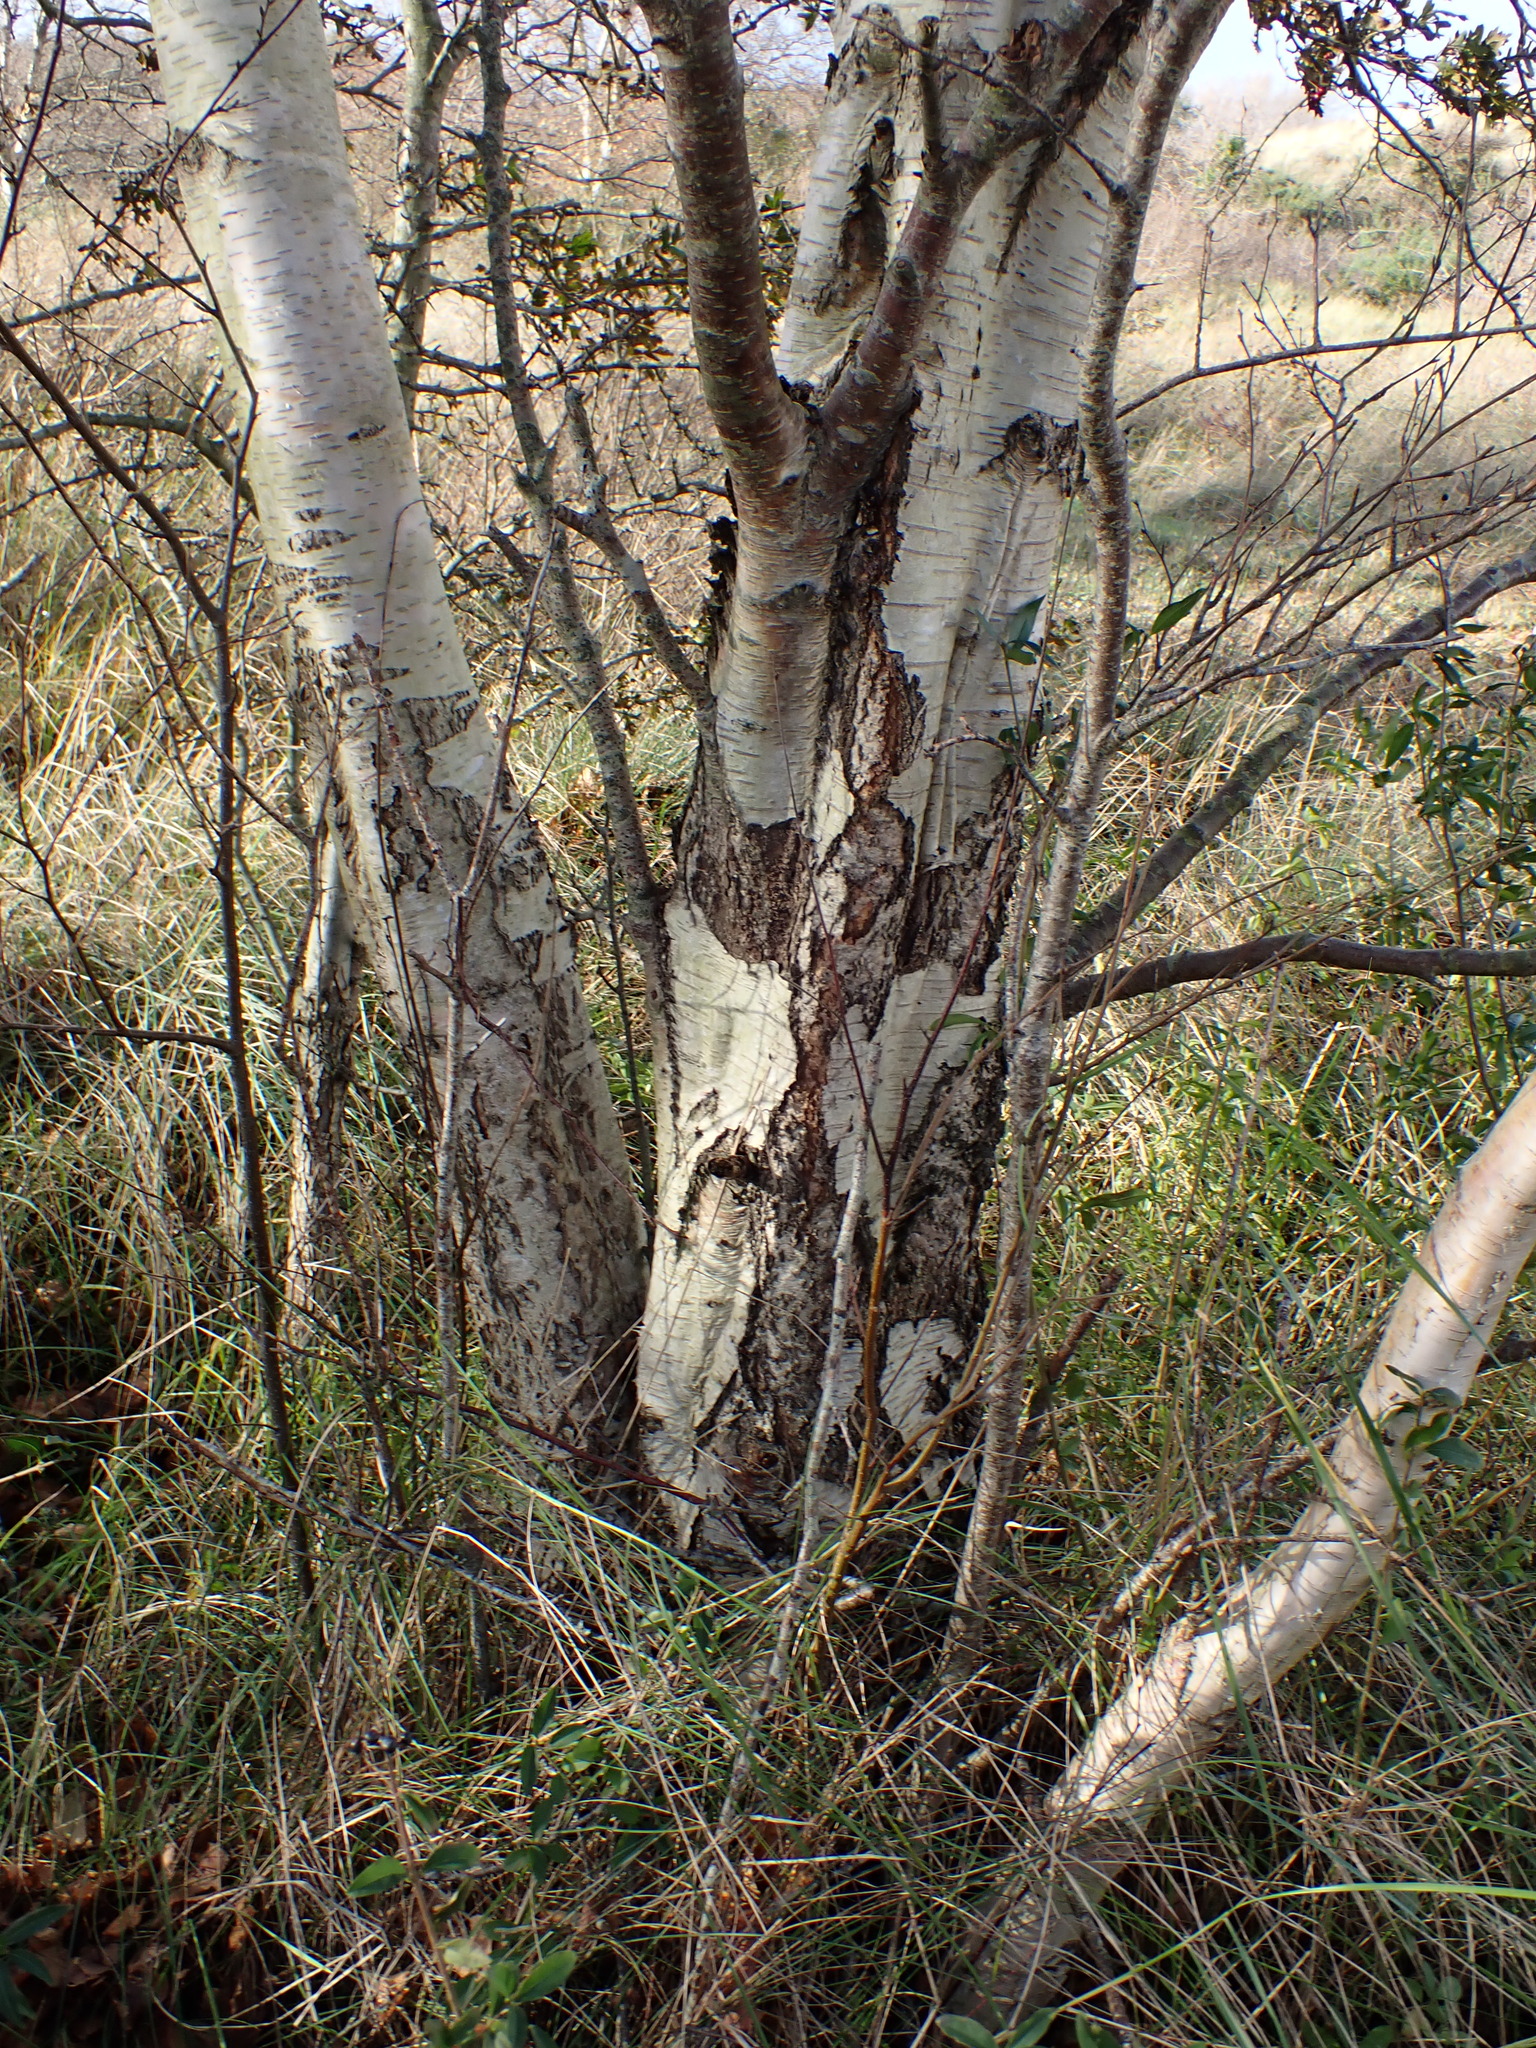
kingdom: Plantae
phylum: Tracheophyta
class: Magnoliopsida
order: Fagales
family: Betulaceae
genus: Betula
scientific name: Betula pendula
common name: Silver birch
